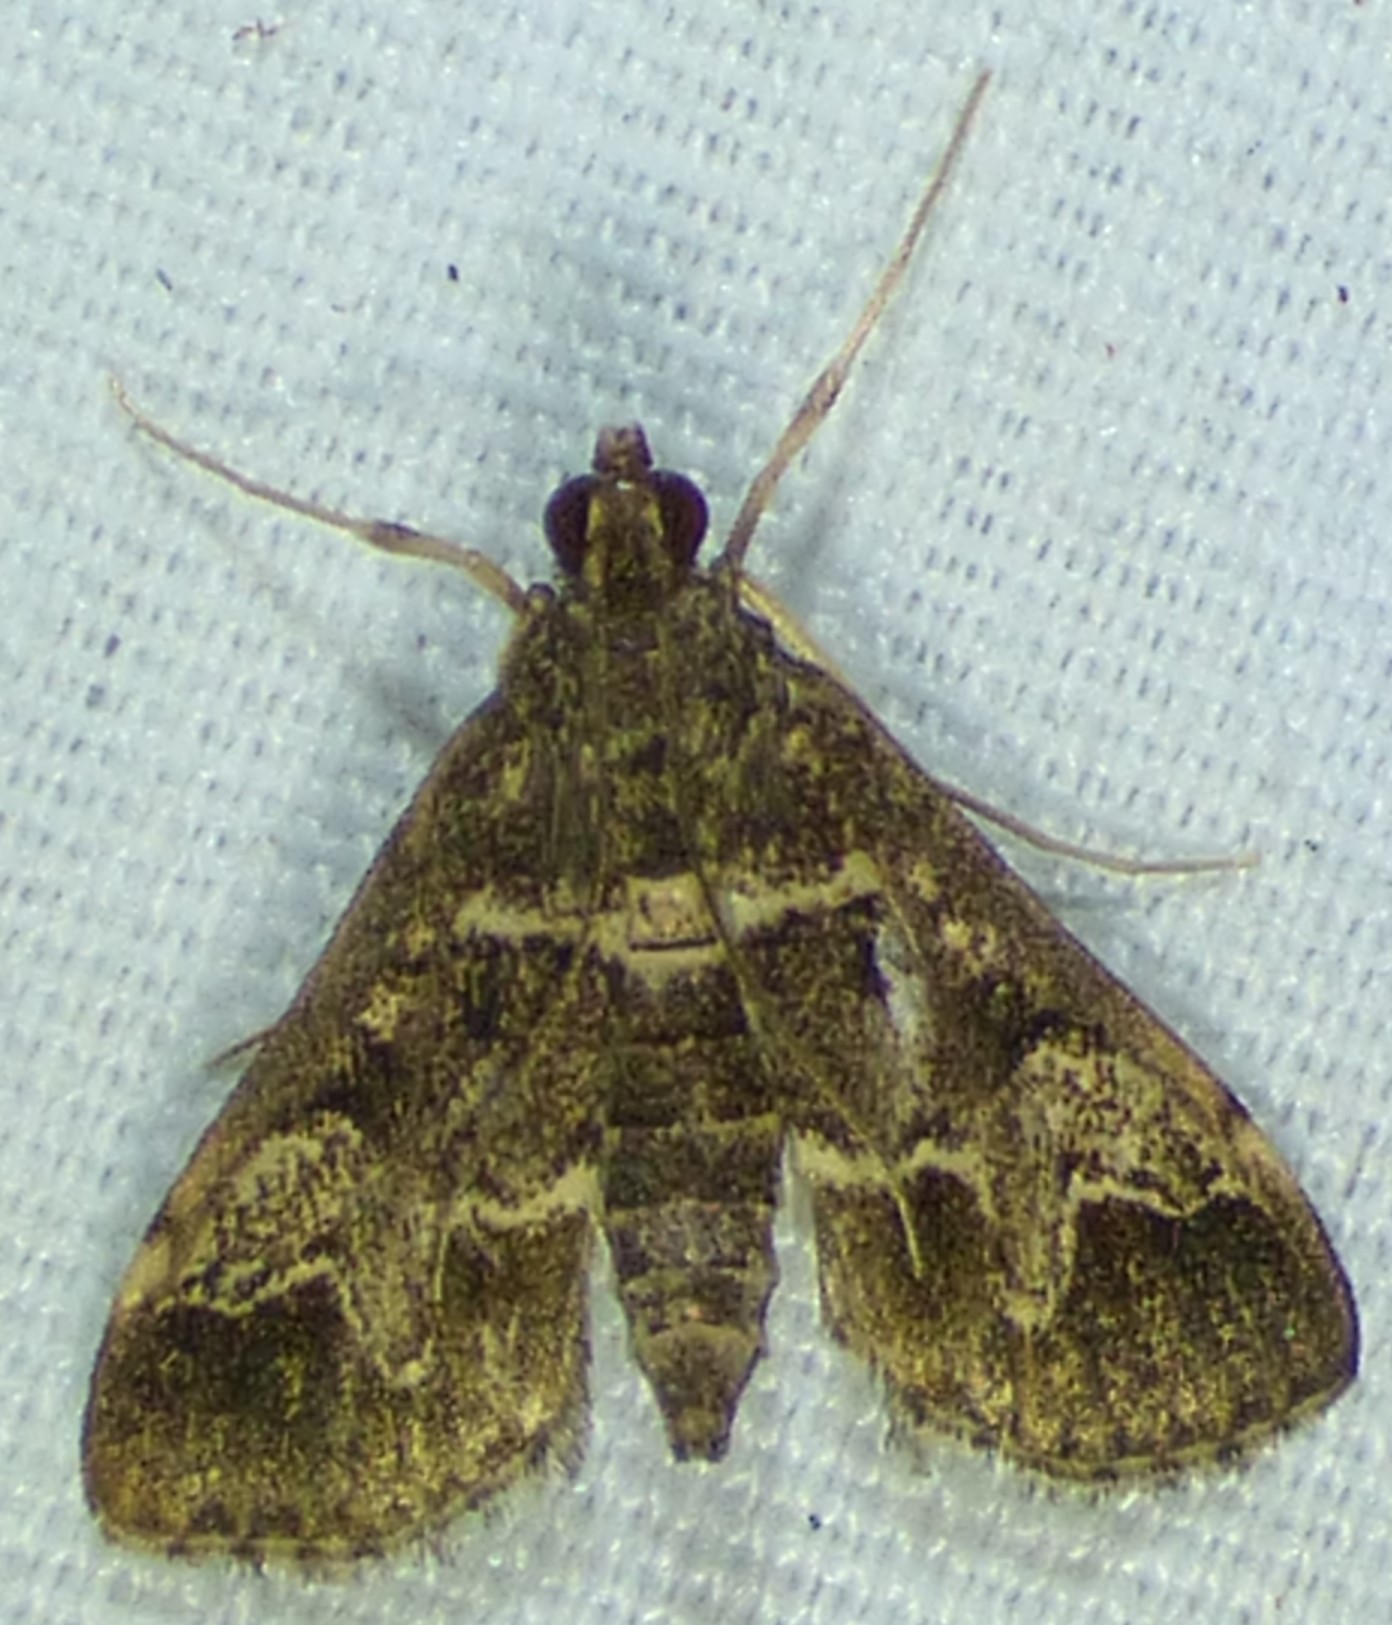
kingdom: Animalia
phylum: Arthropoda
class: Insecta
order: Lepidoptera
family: Crambidae
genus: Duponchelia
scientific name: Duponchelia fovealis
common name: Crambid moth
